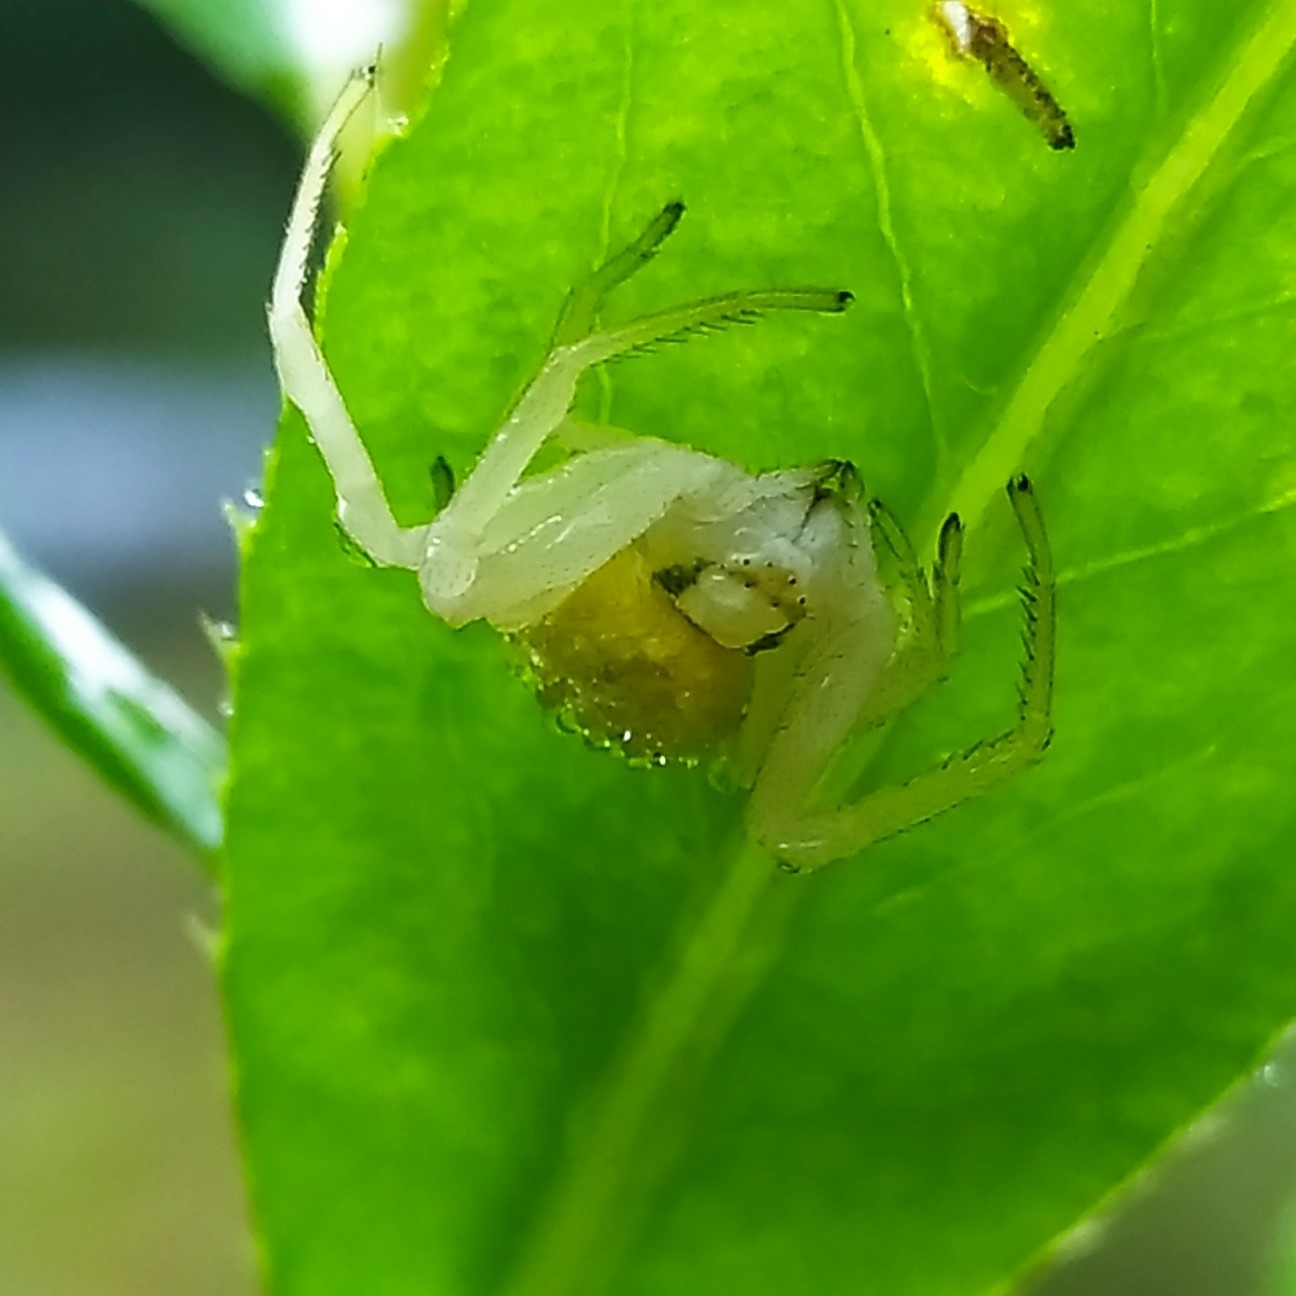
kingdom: Animalia
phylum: Arthropoda
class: Arachnida
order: Araneae
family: Thomisidae
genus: Misumena
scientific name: Misumena vatia
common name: Goldenrod crab spider
